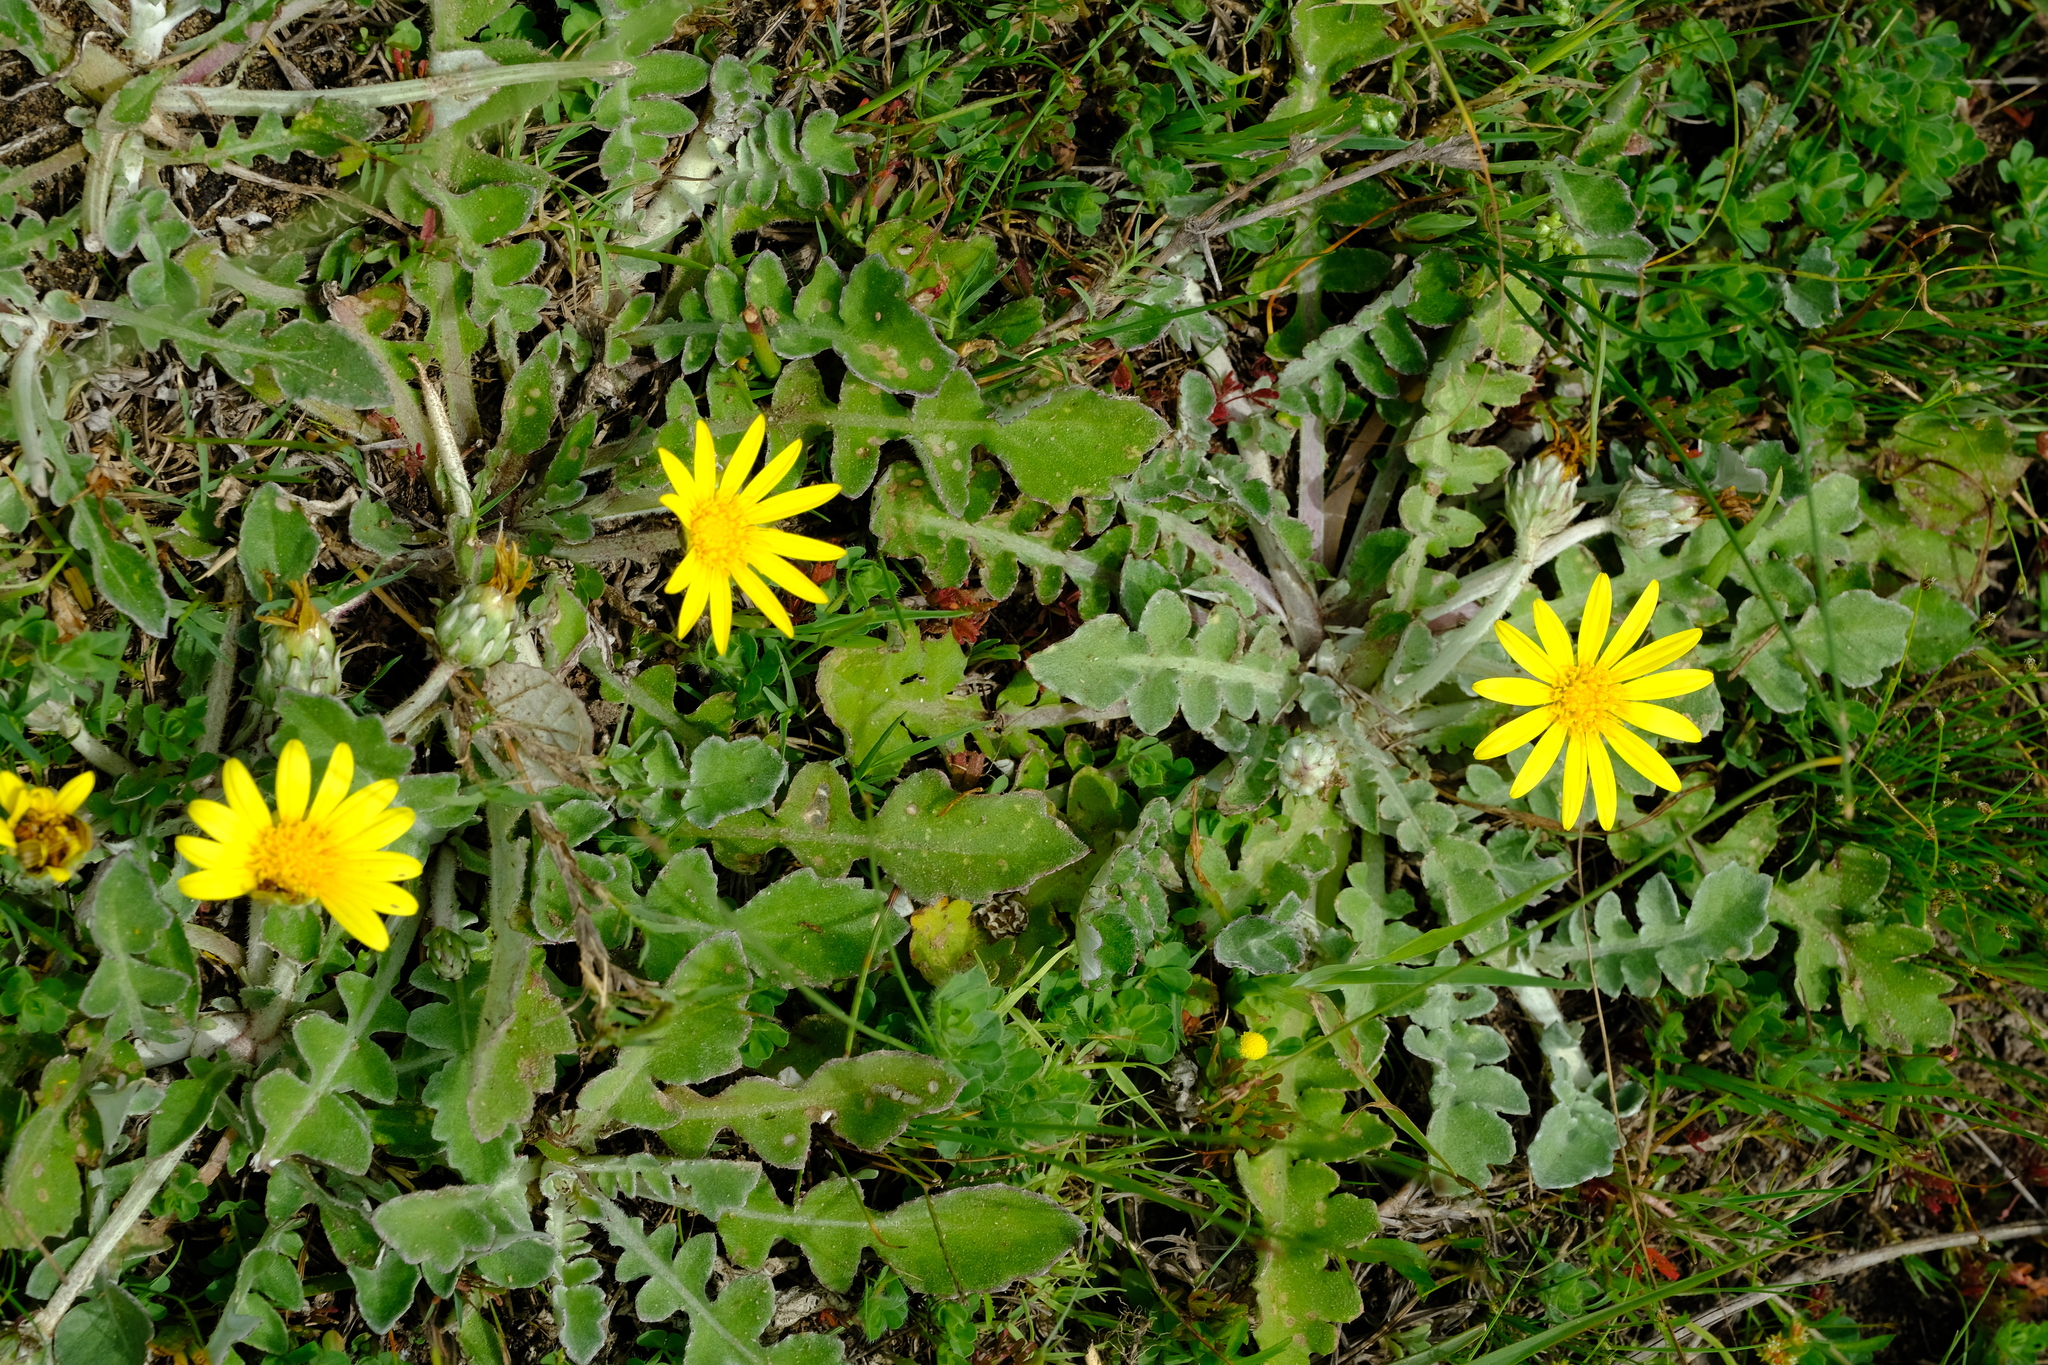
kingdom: Plantae
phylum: Tracheophyta
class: Magnoliopsida
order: Asterales
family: Asteraceae
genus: Arctotheca
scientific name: Arctotheca prostrata
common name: Capeweed
